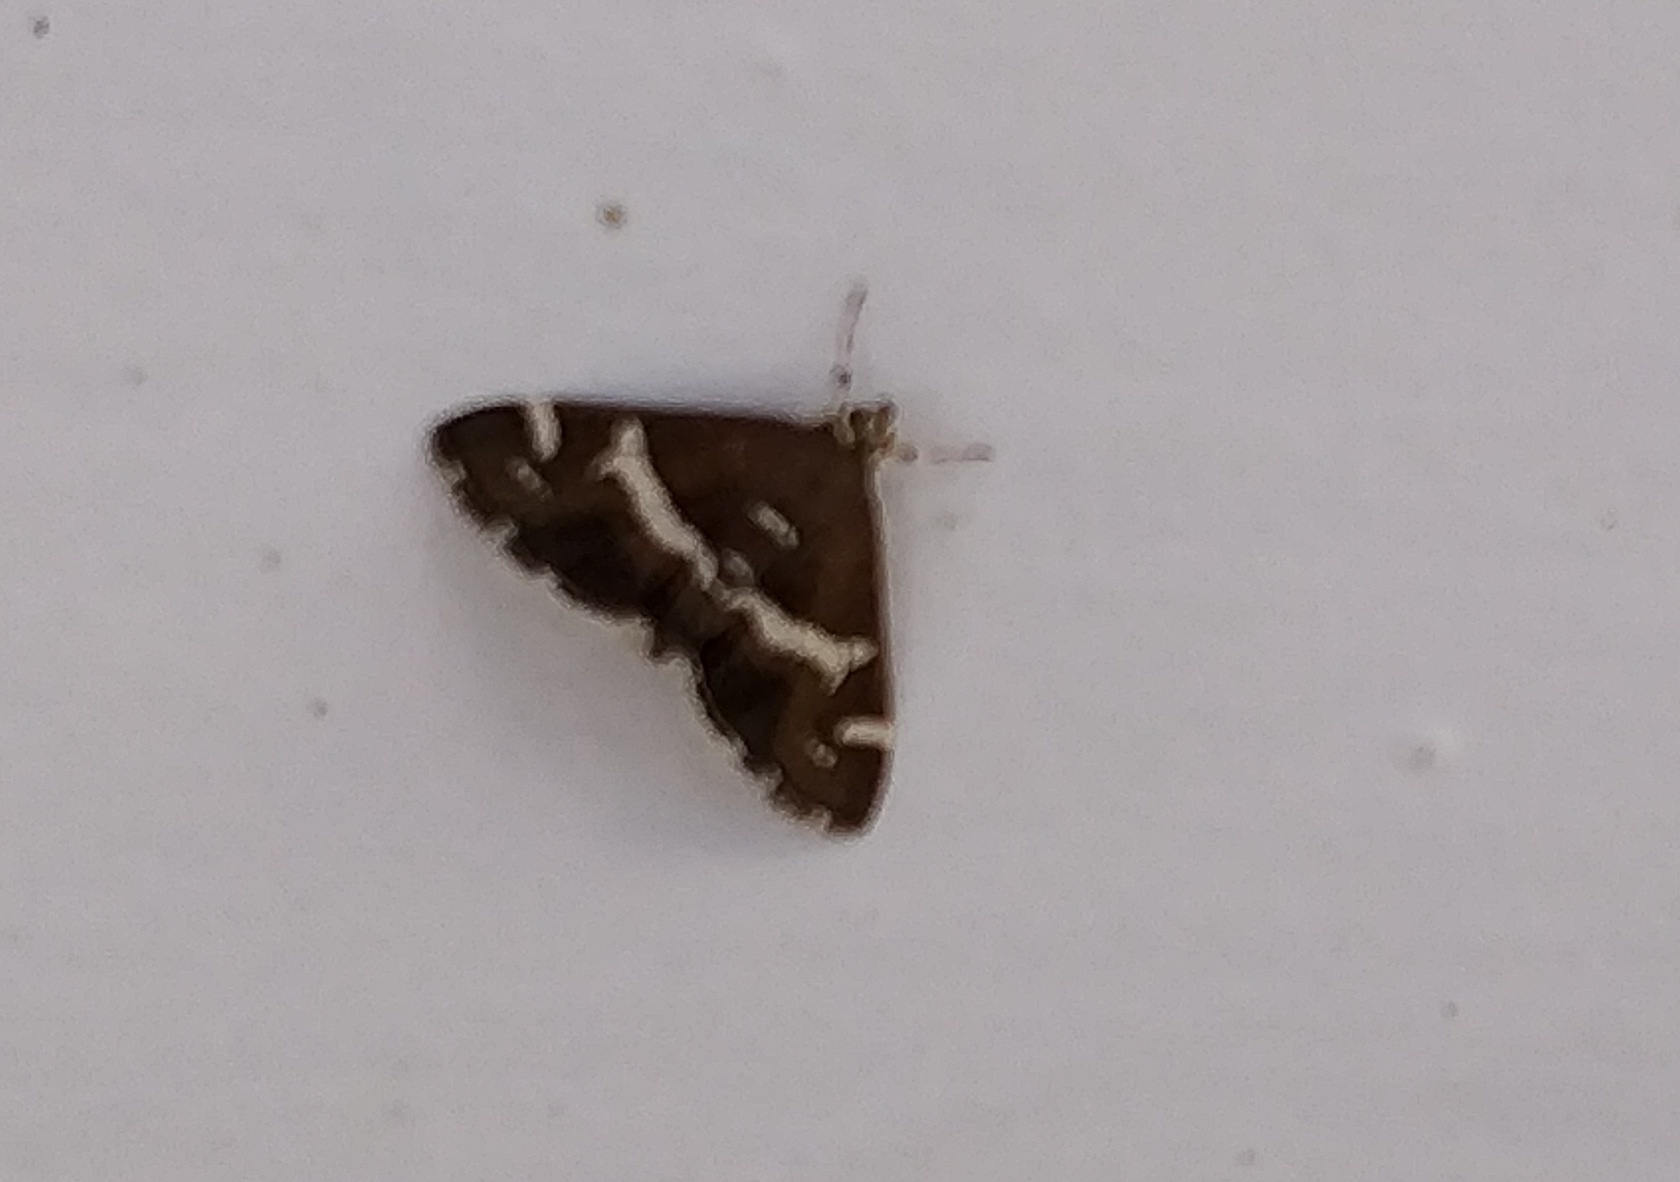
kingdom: Animalia
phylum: Arthropoda
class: Insecta
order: Lepidoptera
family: Crambidae
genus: Spoladea
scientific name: Spoladea recurvalis
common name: Beet webworm moth
